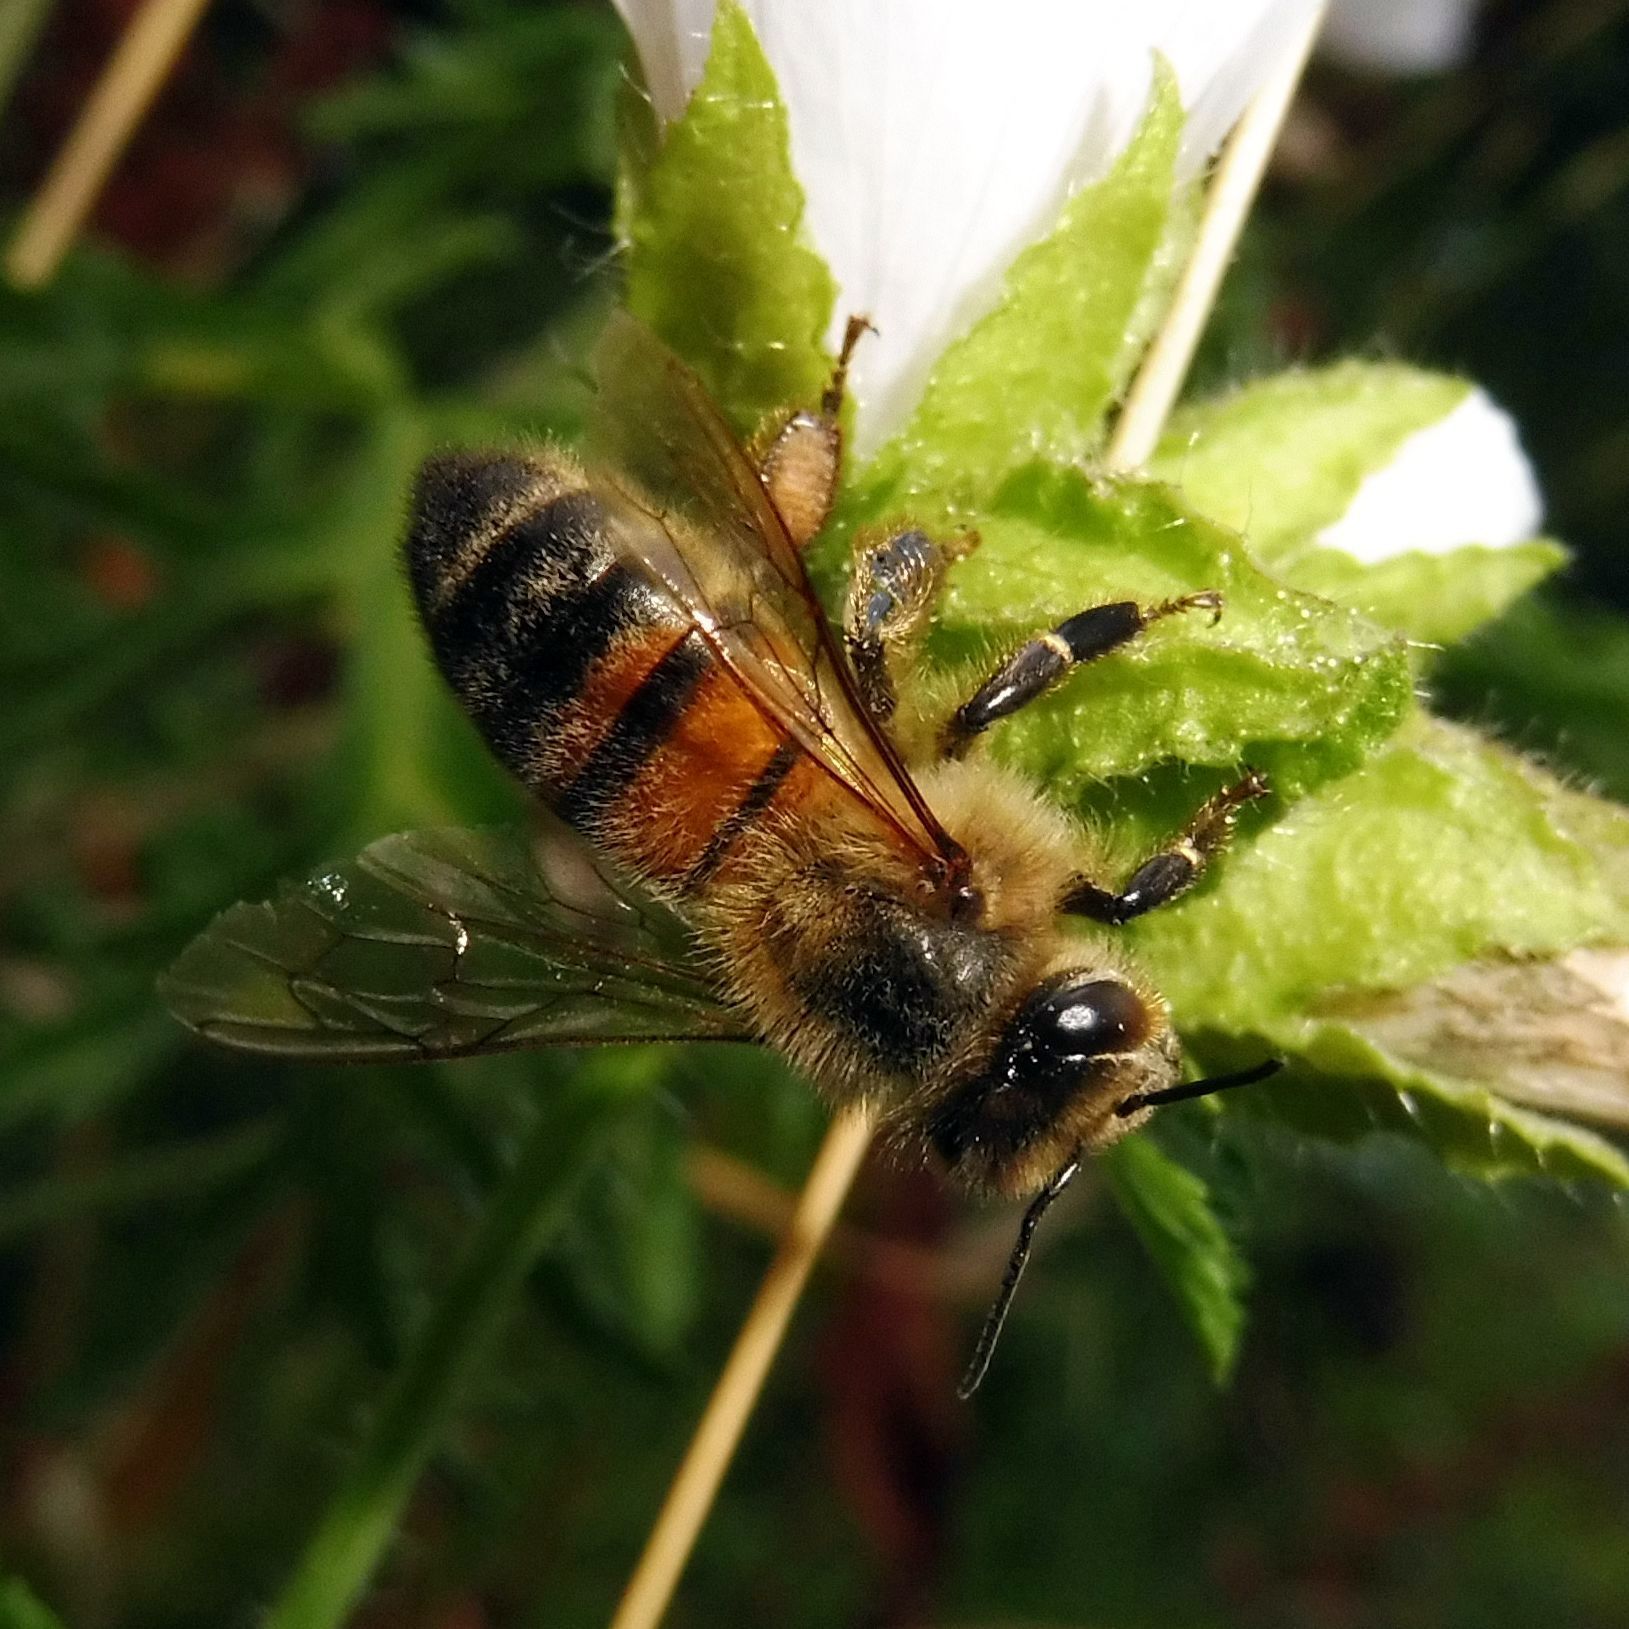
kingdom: Animalia
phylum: Arthropoda
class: Insecta
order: Hymenoptera
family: Apidae
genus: Apis
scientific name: Apis mellifera
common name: Honey bee
